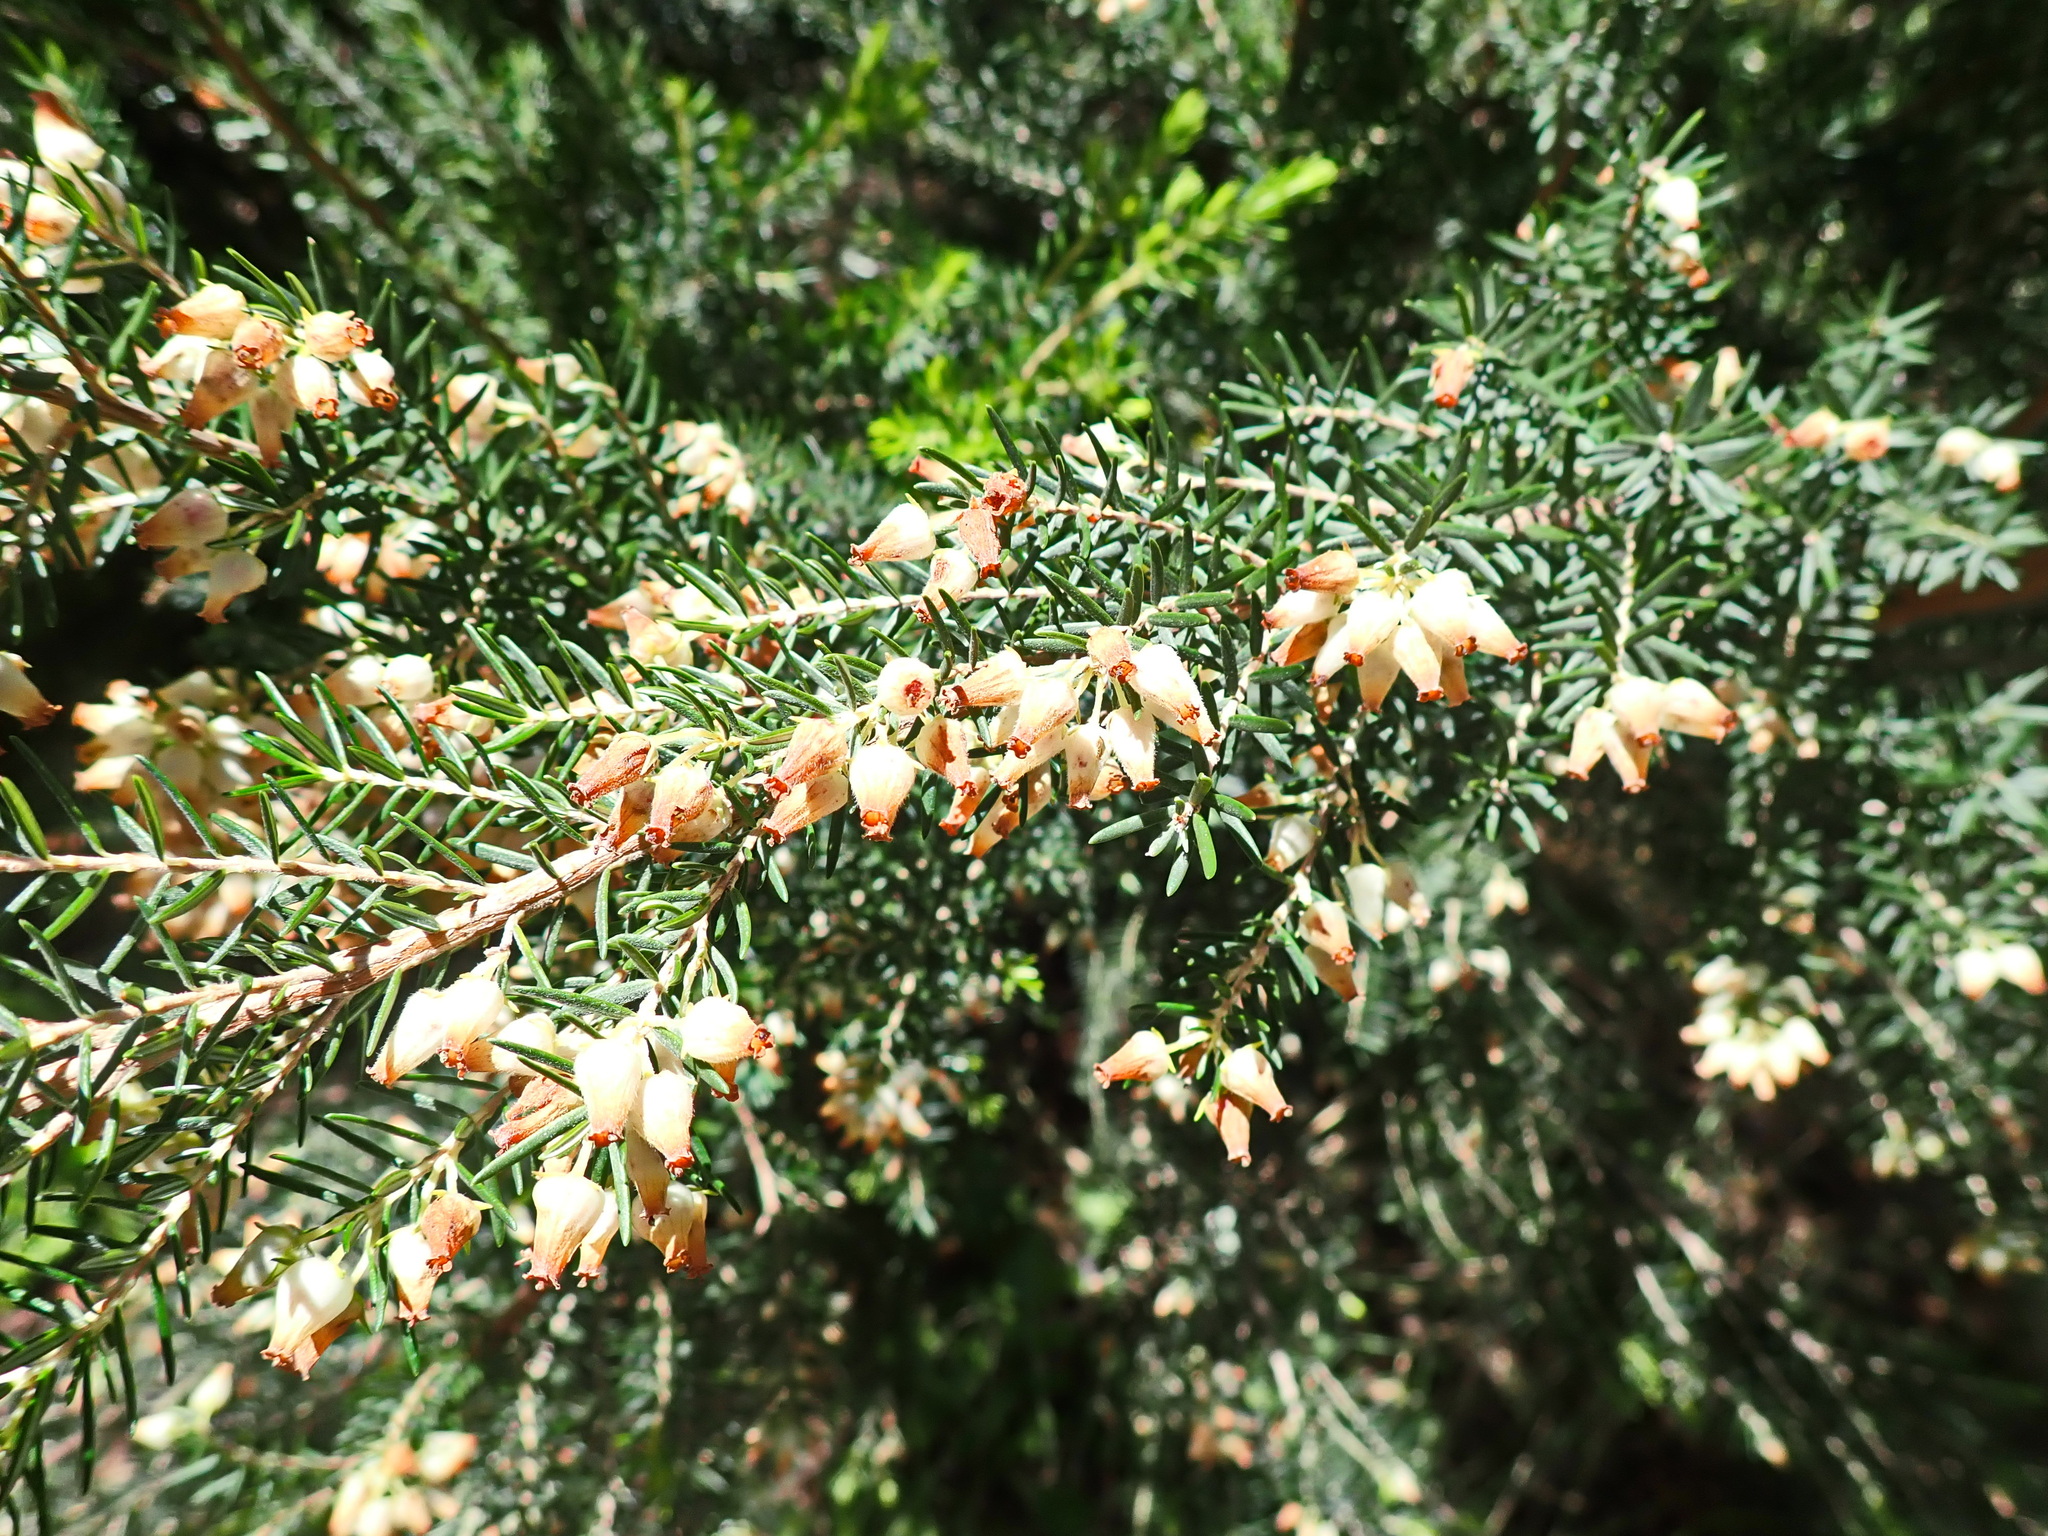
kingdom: Plantae
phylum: Tracheophyta
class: Magnoliopsida
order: Ericales
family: Ericaceae
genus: Erica
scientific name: Erica caffra
